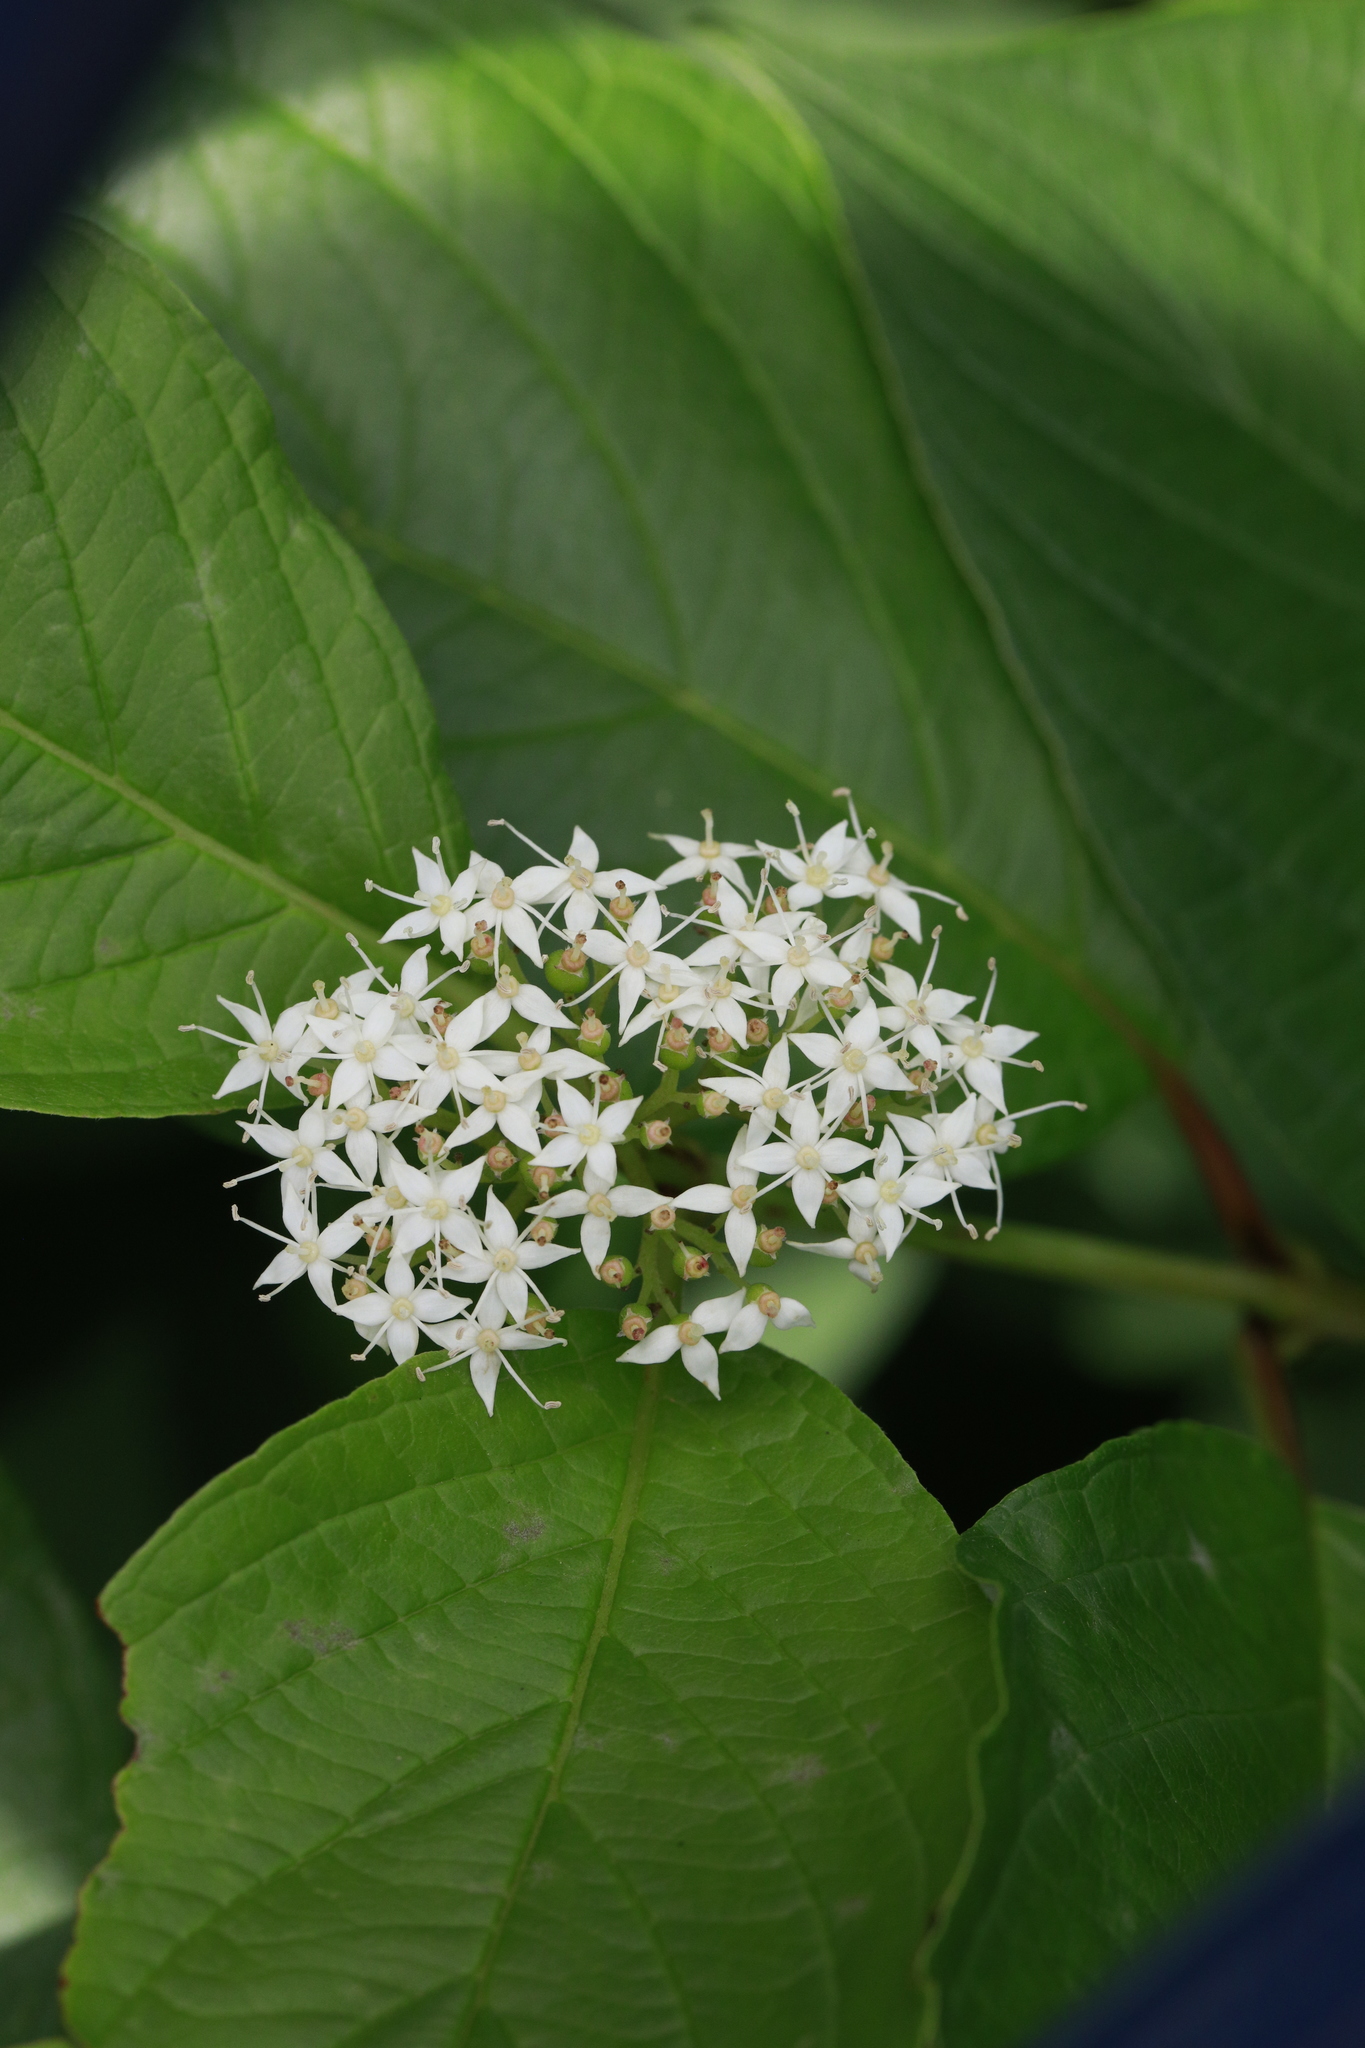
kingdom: Plantae
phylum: Tracheophyta
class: Magnoliopsida
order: Cornales
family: Cornaceae
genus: Cornus
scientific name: Cornus sericea
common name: Red-osier dogwood
